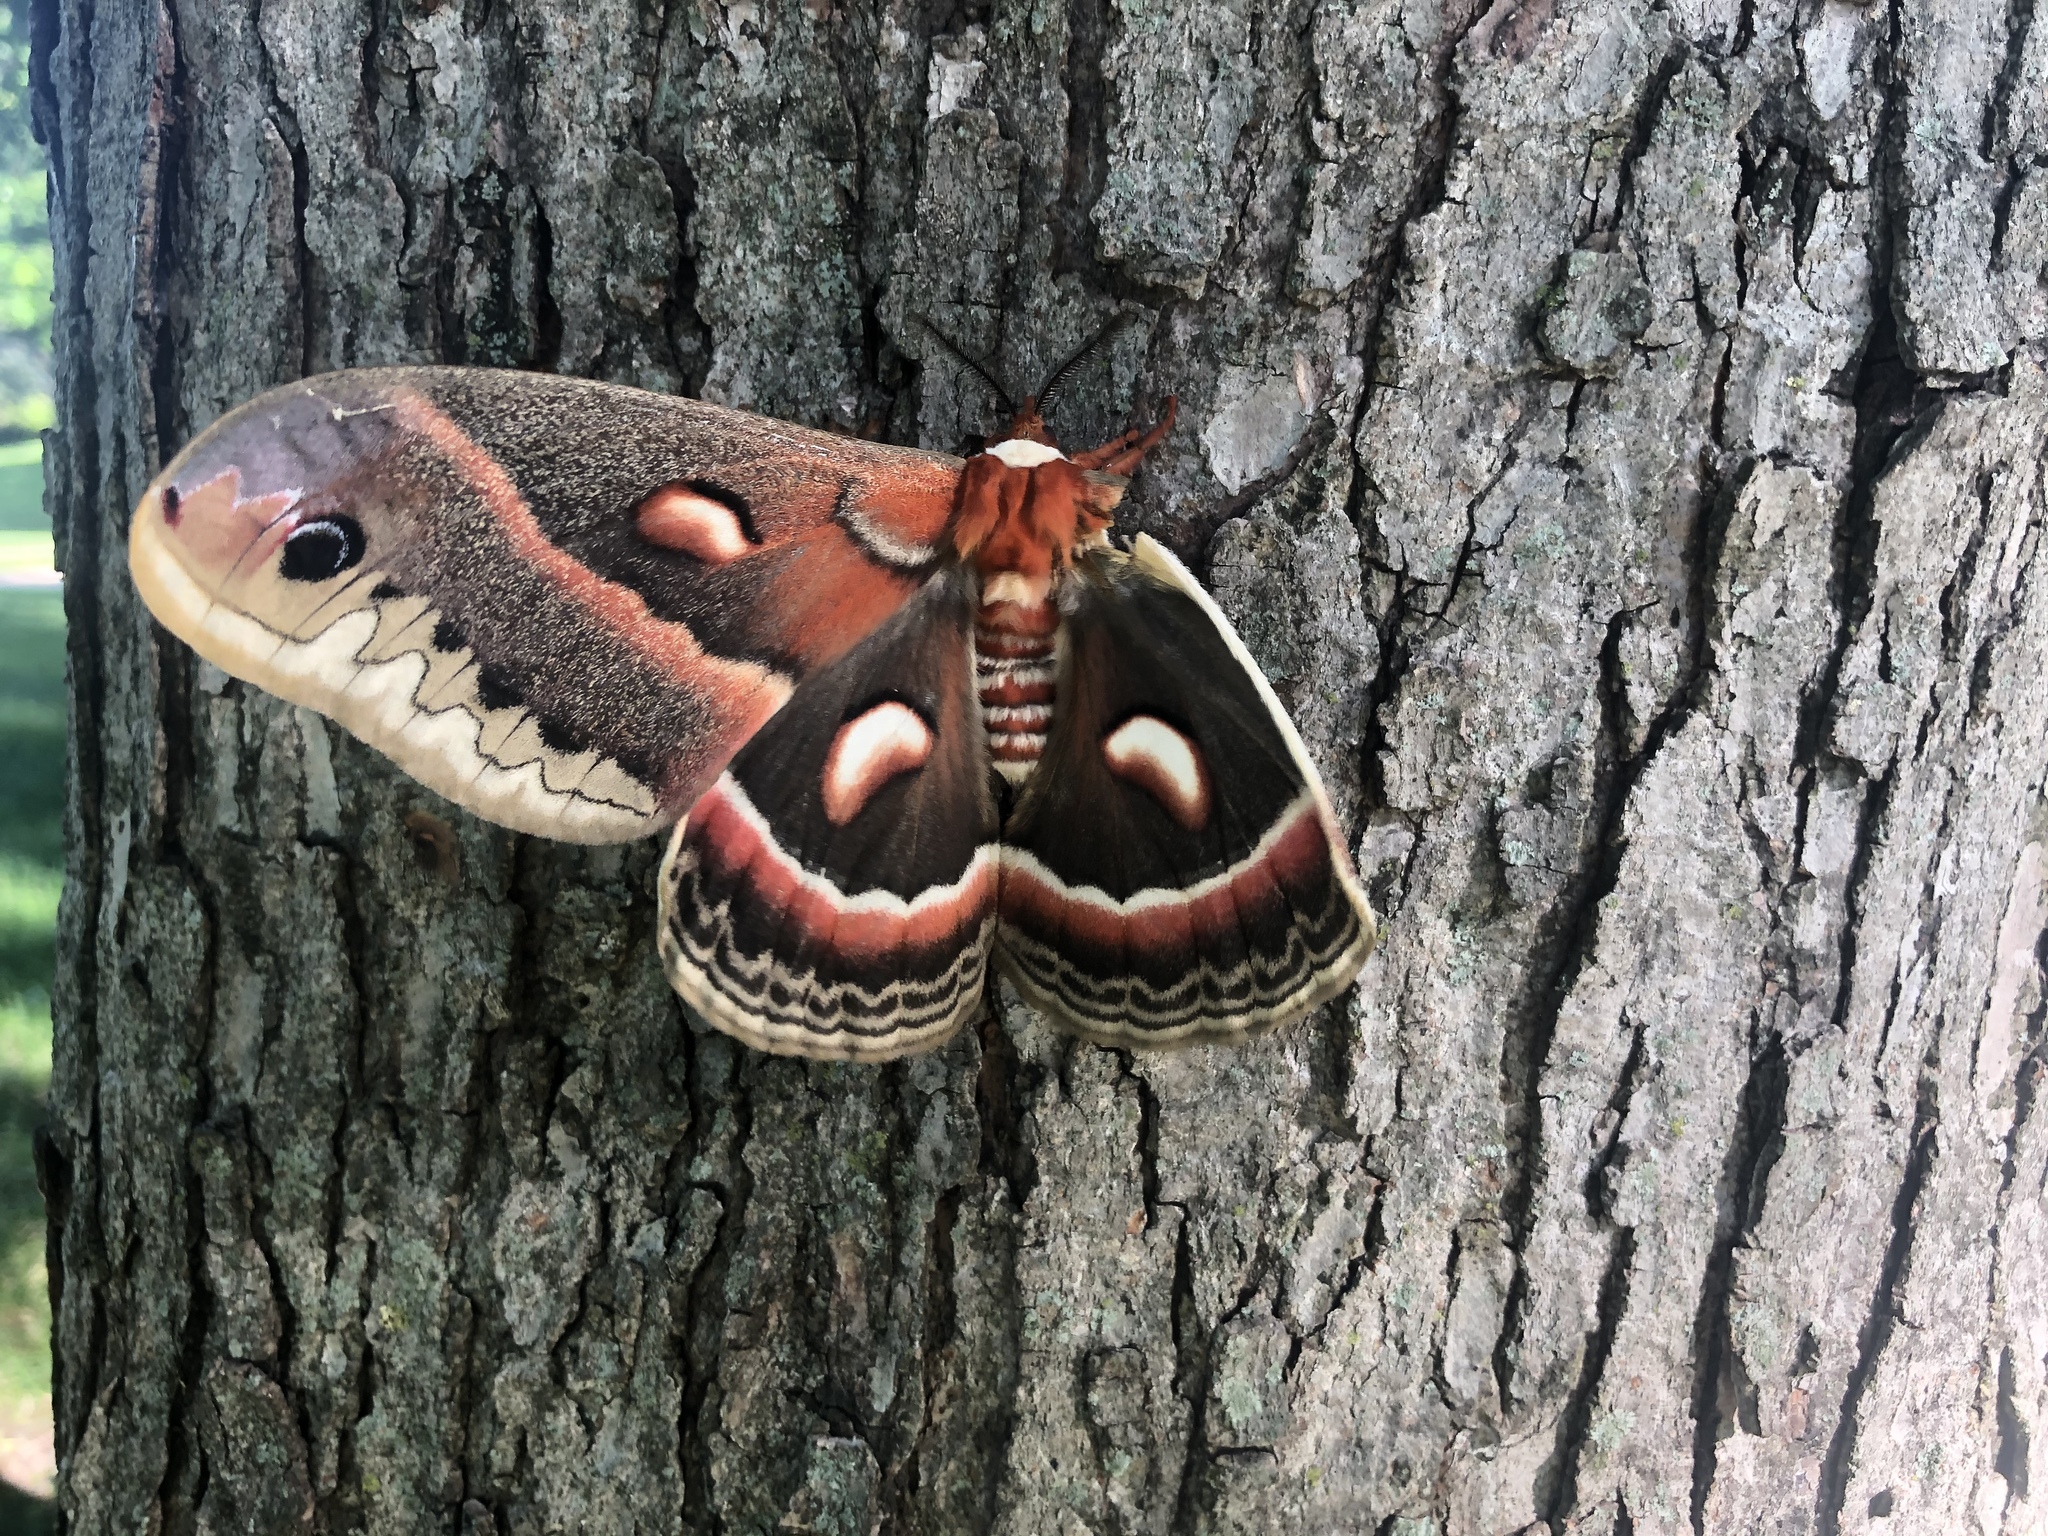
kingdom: Animalia
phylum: Arthropoda
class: Insecta
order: Lepidoptera
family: Saturniidae
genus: Hyalophora
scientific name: Hyalophora cecropia
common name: Cecropia silkmoth
